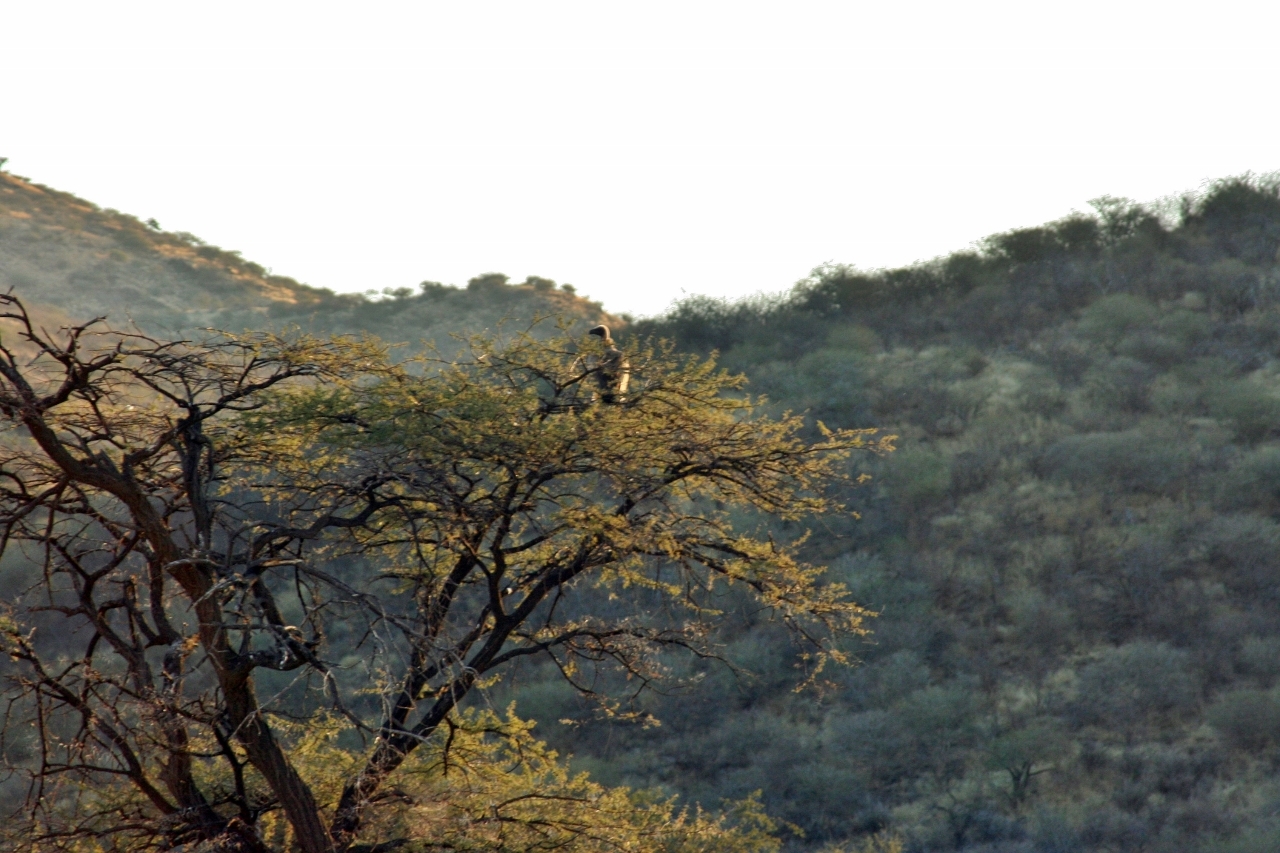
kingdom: Animalia
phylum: Chordata
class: Aves
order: Accipitriformes
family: Accipitridae
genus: Gyps
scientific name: Gyps africanus
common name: White-backed vulture
